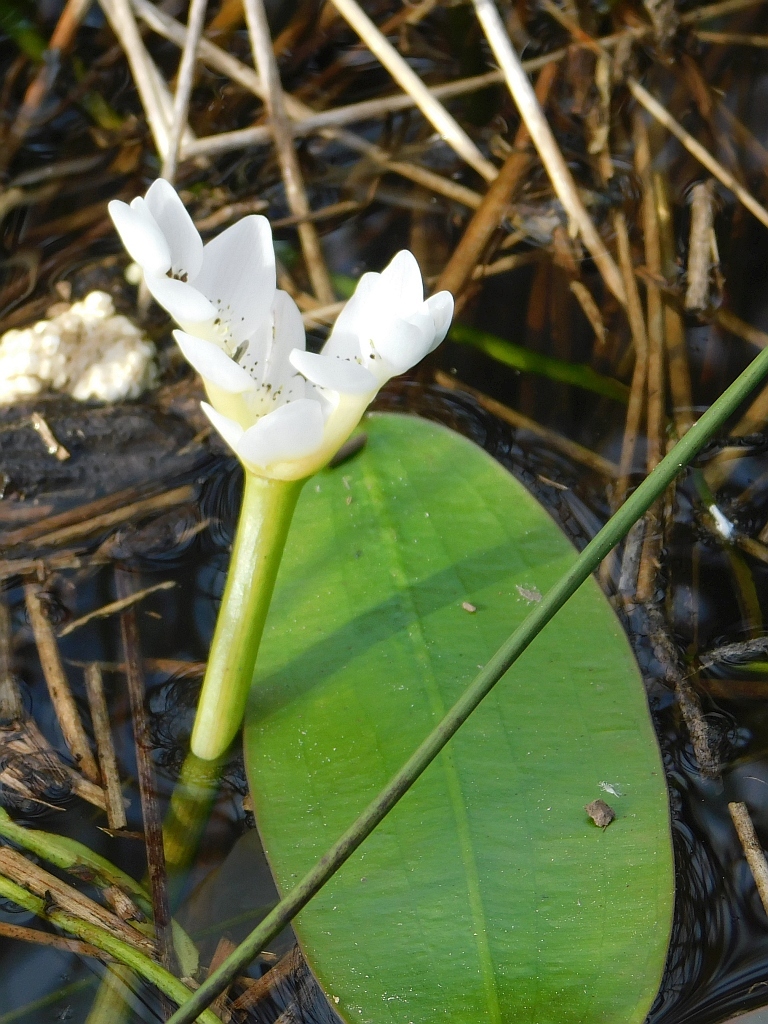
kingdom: Plantae
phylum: Tracheophyta
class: Liliopsida
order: Alismatales
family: Aponogetonaceae
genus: Aponogeton
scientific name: Aponogeton distachyos
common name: Cape-pondweed
